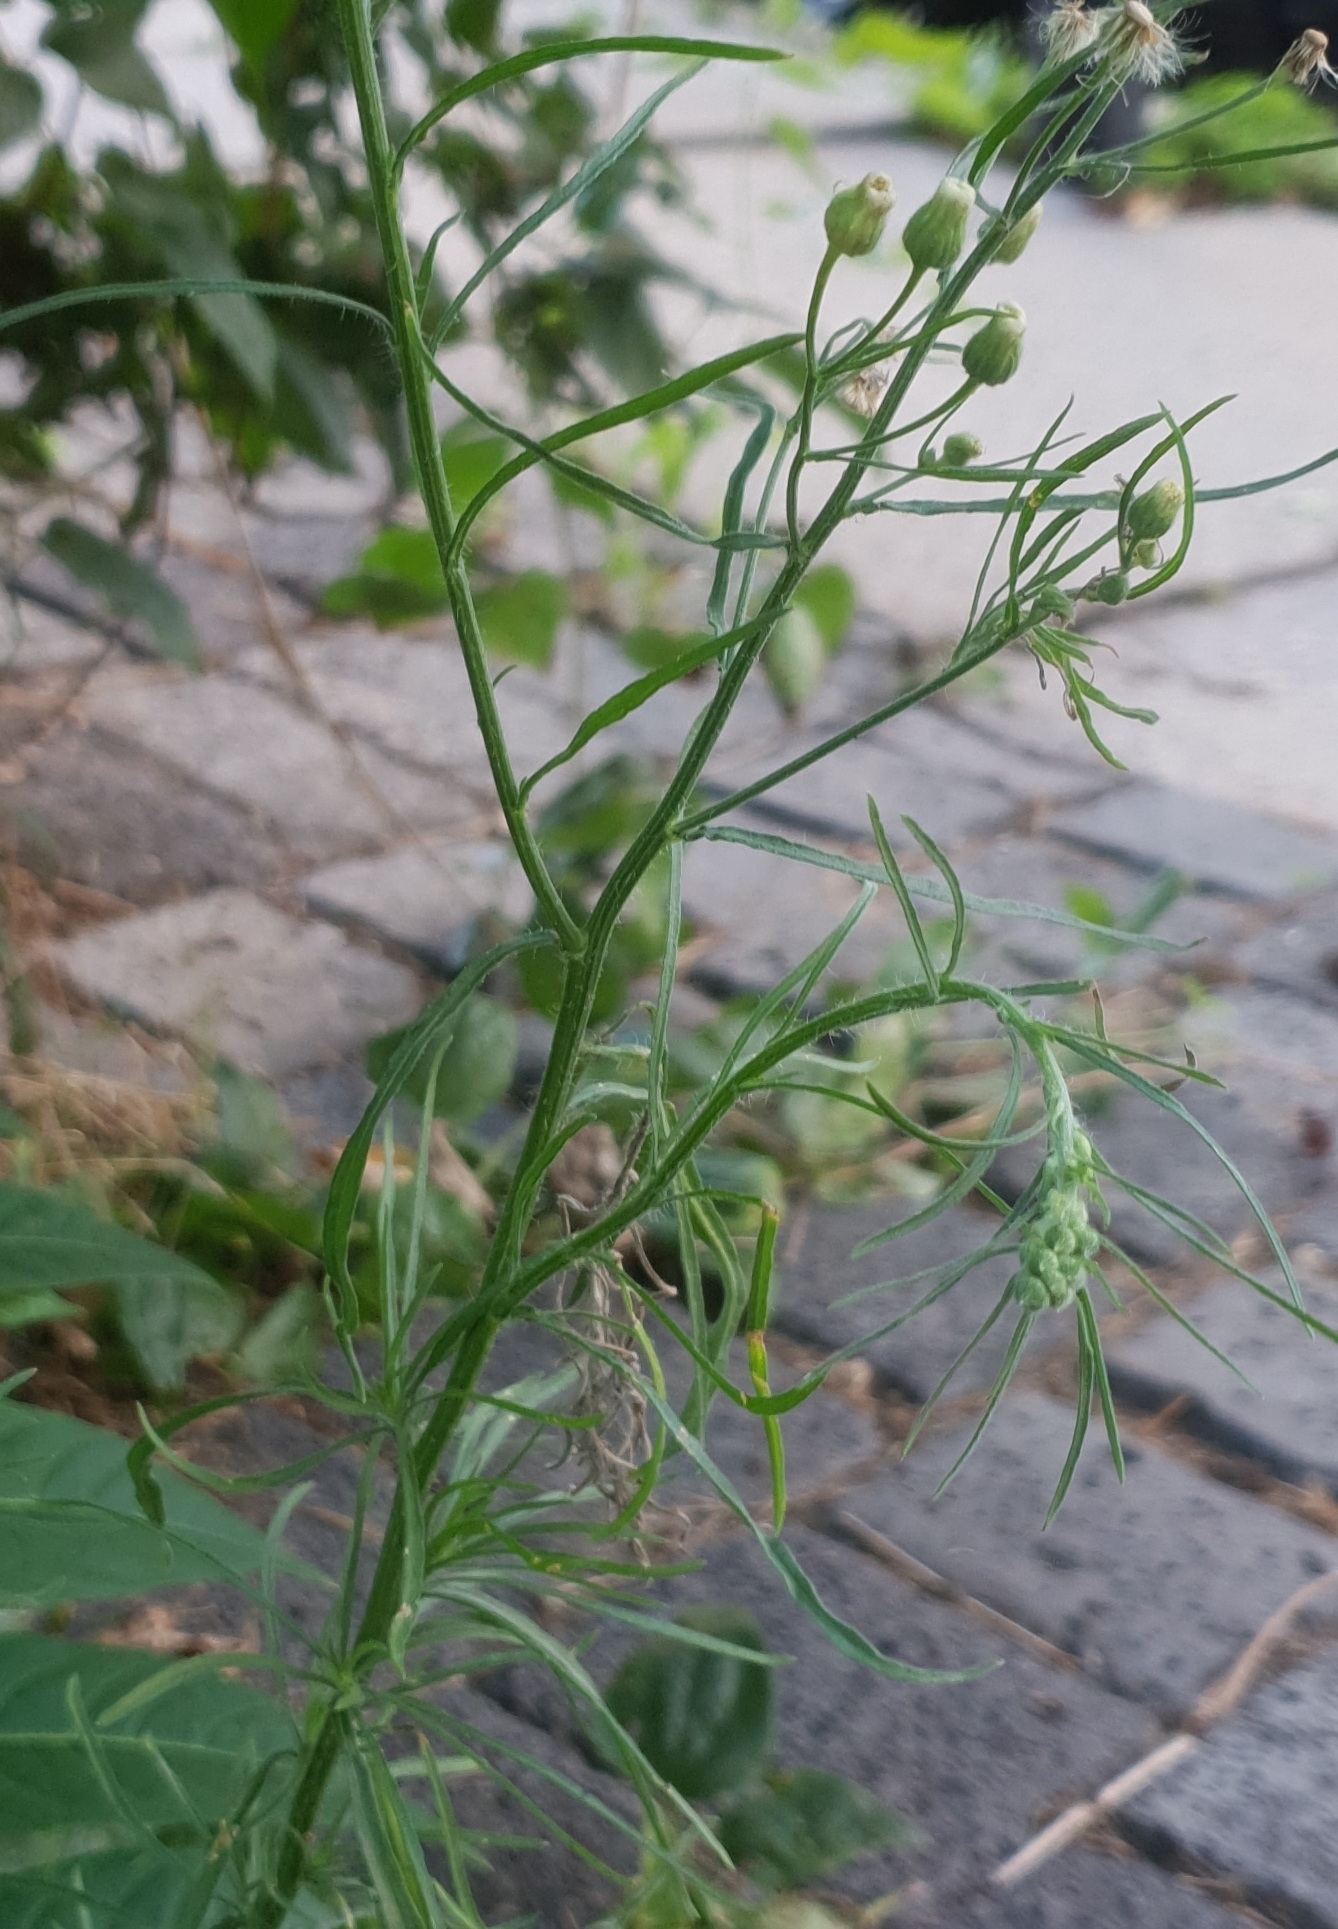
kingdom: Plantae
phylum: Tracheophyta
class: Magnoliopsida
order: Asterales
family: Asteraceae
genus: Erigeron
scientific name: Erigeron bonariensis
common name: Argentine fleabane
